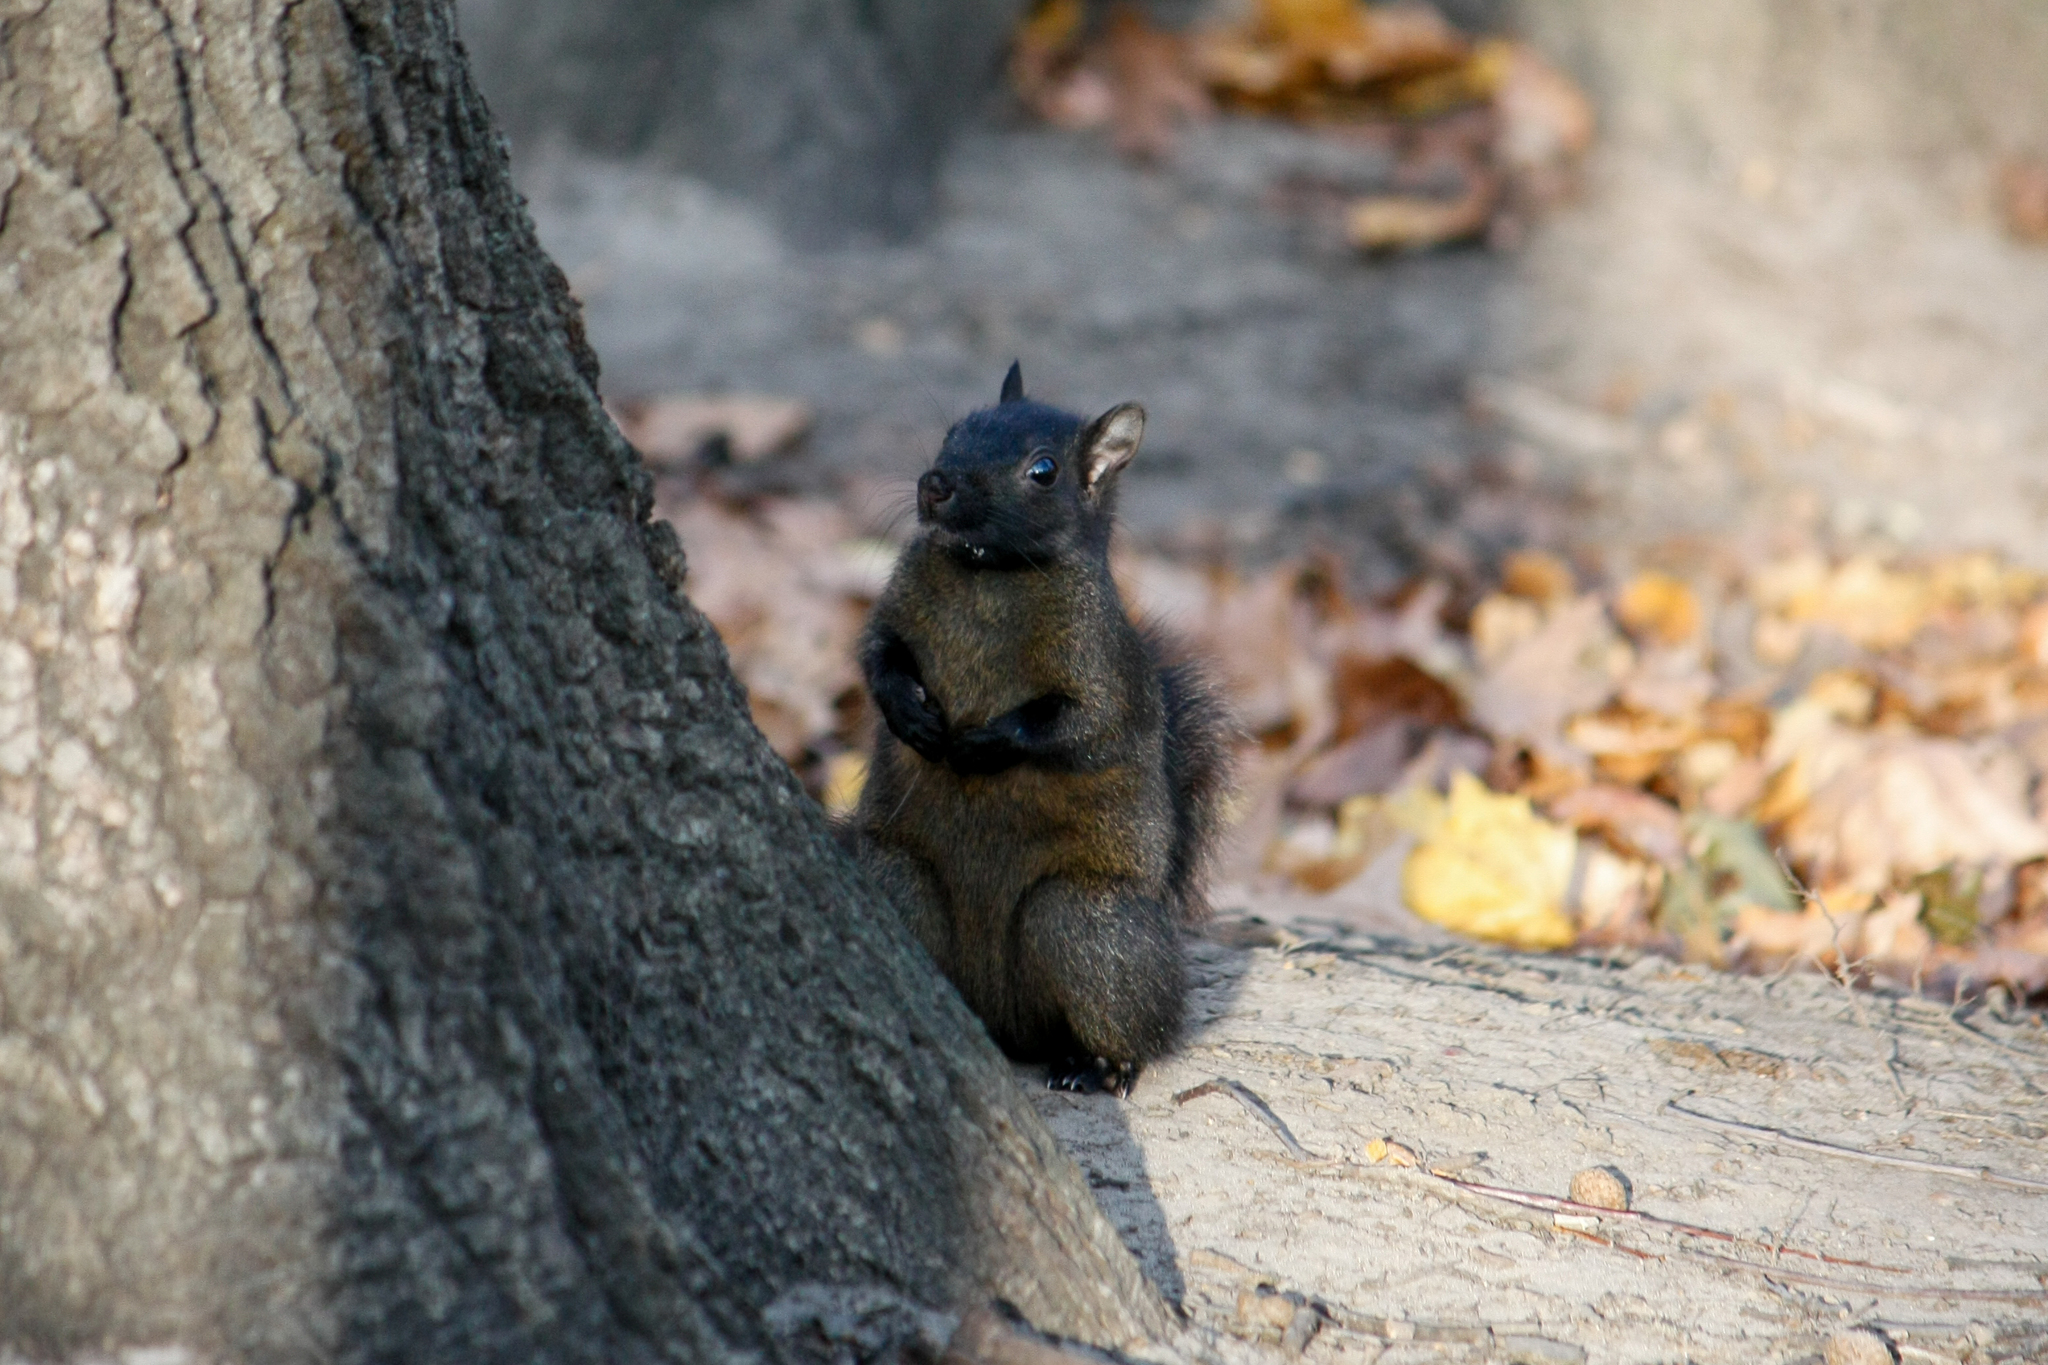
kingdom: Animalia
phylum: Chordata
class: Mammalia
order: Rodentia
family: Sciuridae
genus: Sciurus
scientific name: Sciurus carolinensis
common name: Eastern gray squirrel
